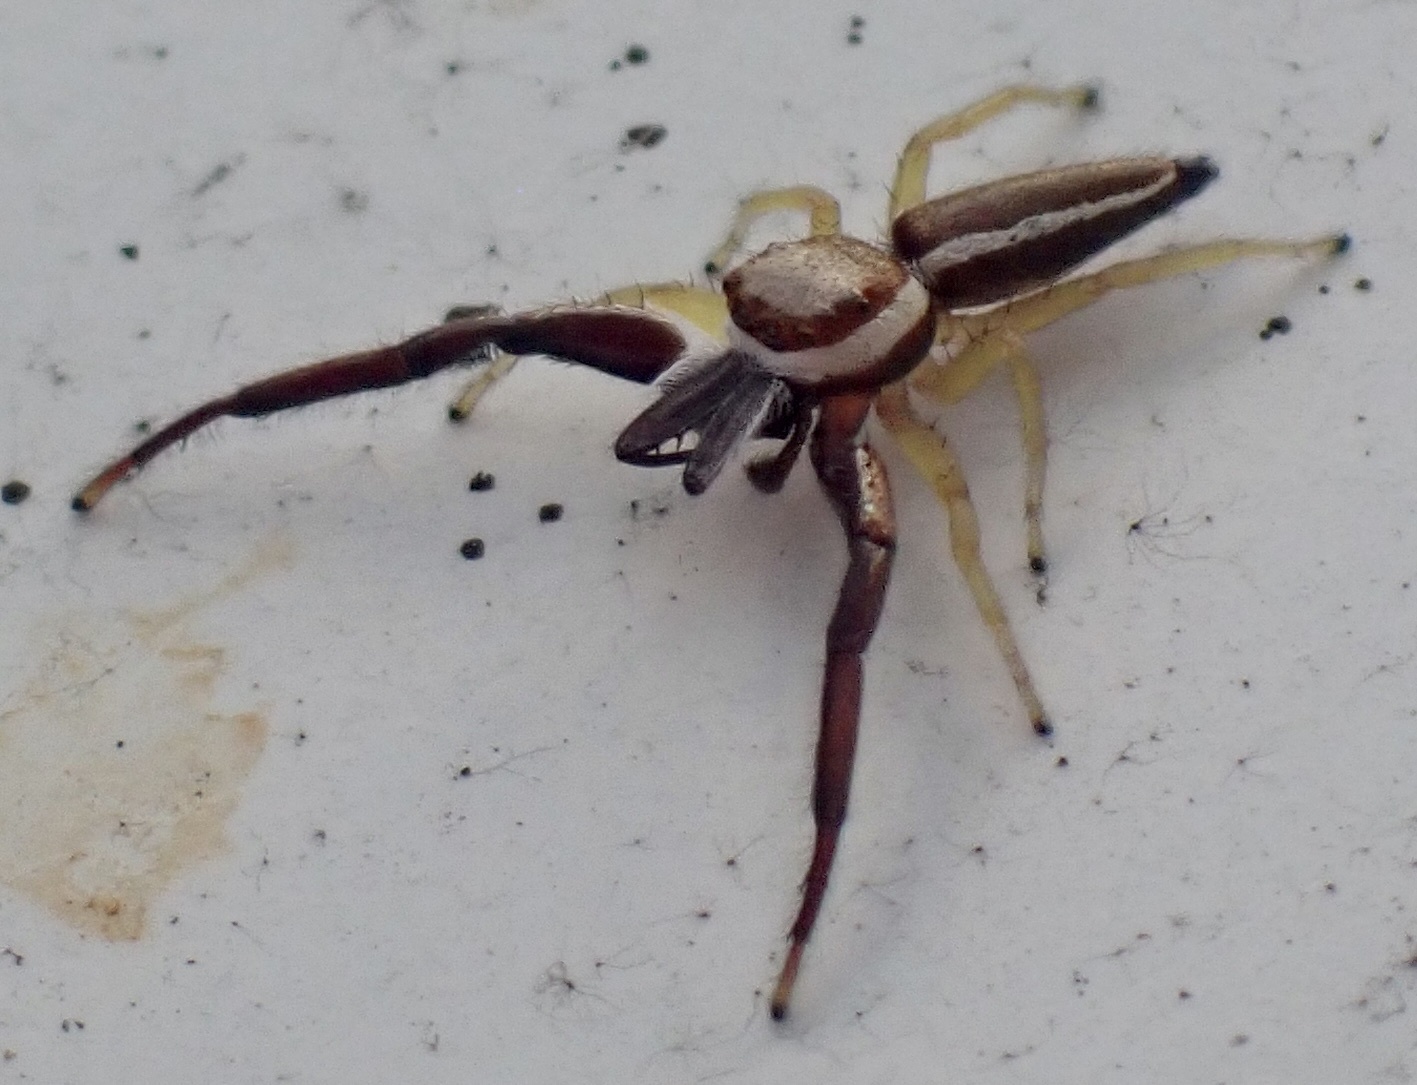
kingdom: Animalia
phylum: Arthropoda
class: Arachnida
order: Araneae
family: Salticidae
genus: Hentzia
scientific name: Hentzia palmarum
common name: Common hentz jumping spider
